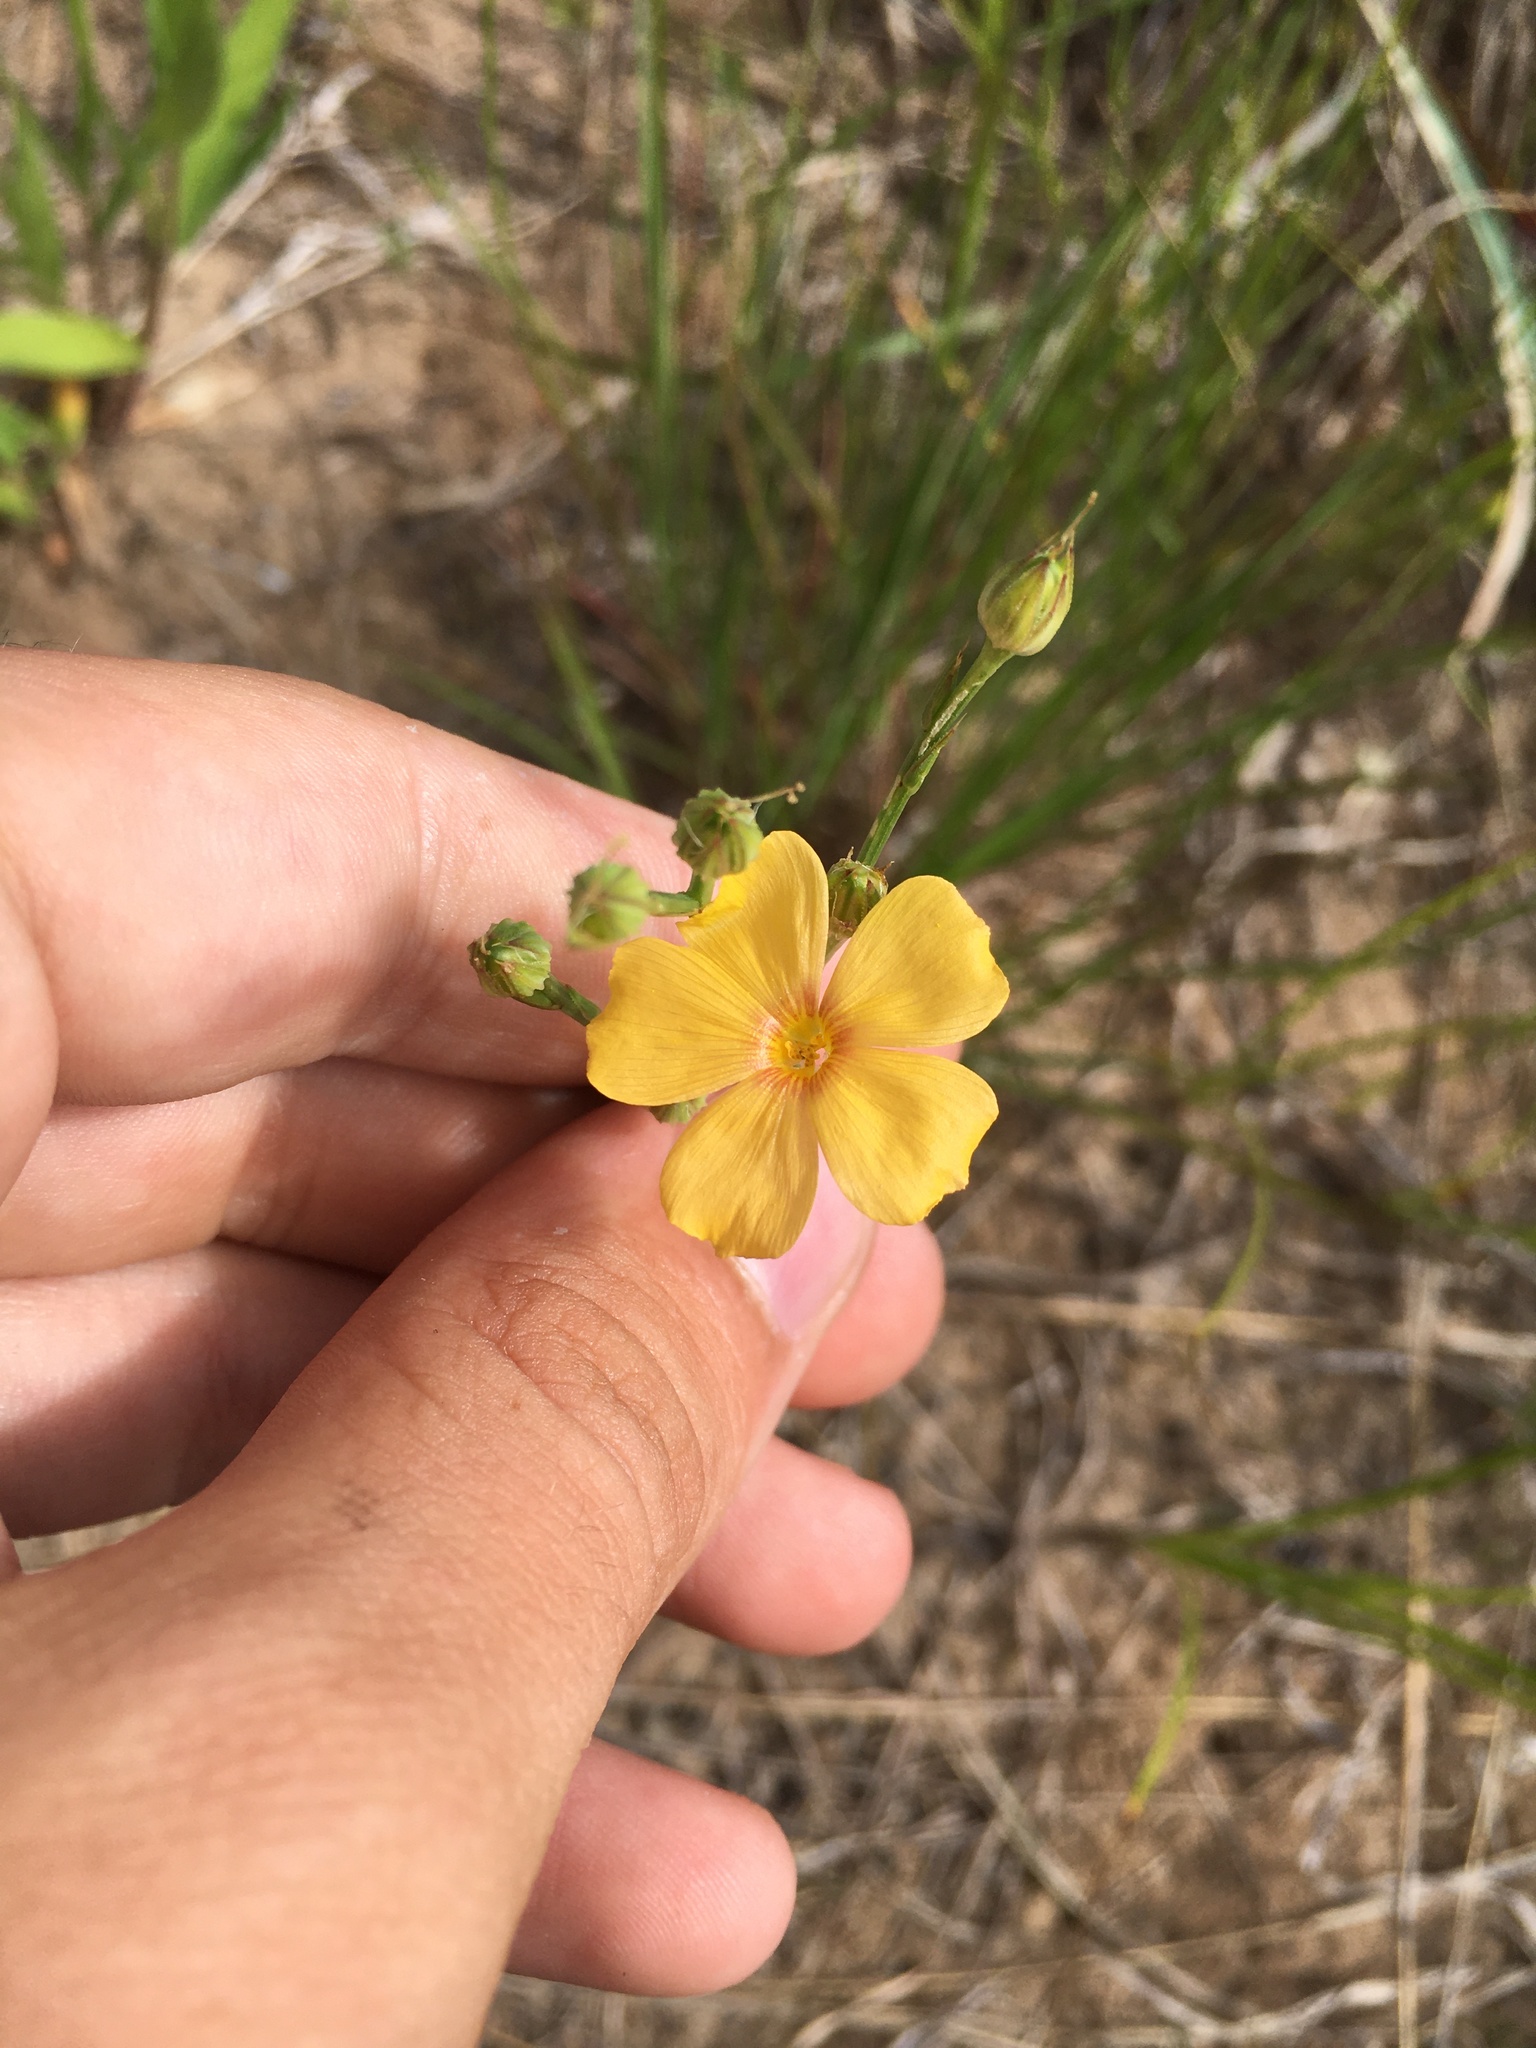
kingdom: Plantae
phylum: Tracheophyta
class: Magnoliopsida
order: Malpighiales
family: Linaceae
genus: Linum
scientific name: Linum rigidum
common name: Stiff-stem flax
